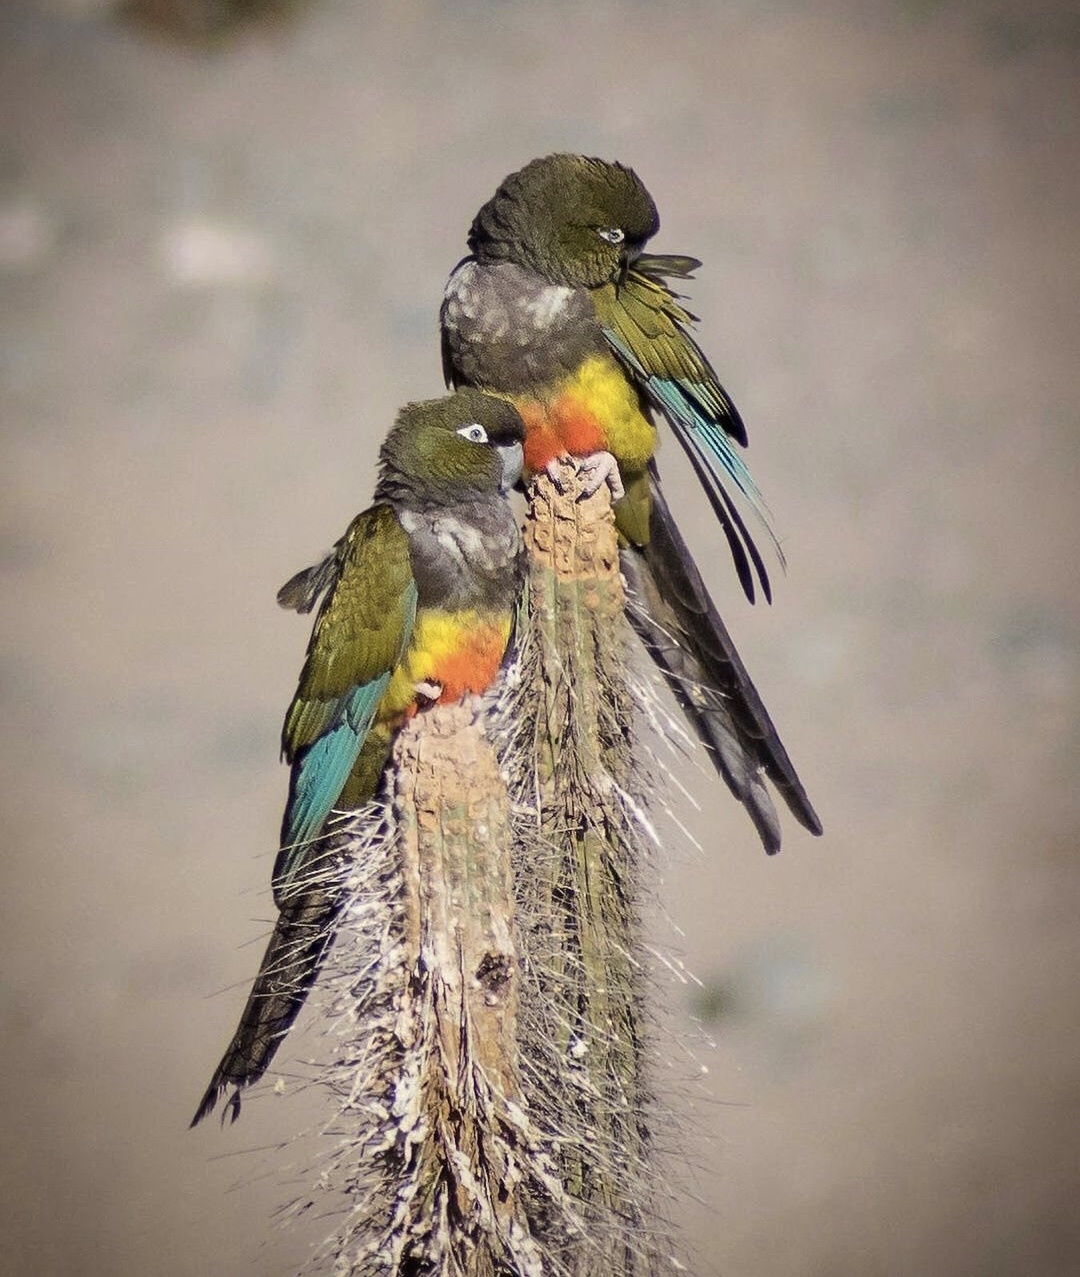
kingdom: Animalia
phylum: Chordata
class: Aves
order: Psittaciformes
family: Psittacidae
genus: Cyanoliseus
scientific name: Cyanoliseus patagonus
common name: Burrowing parrot
